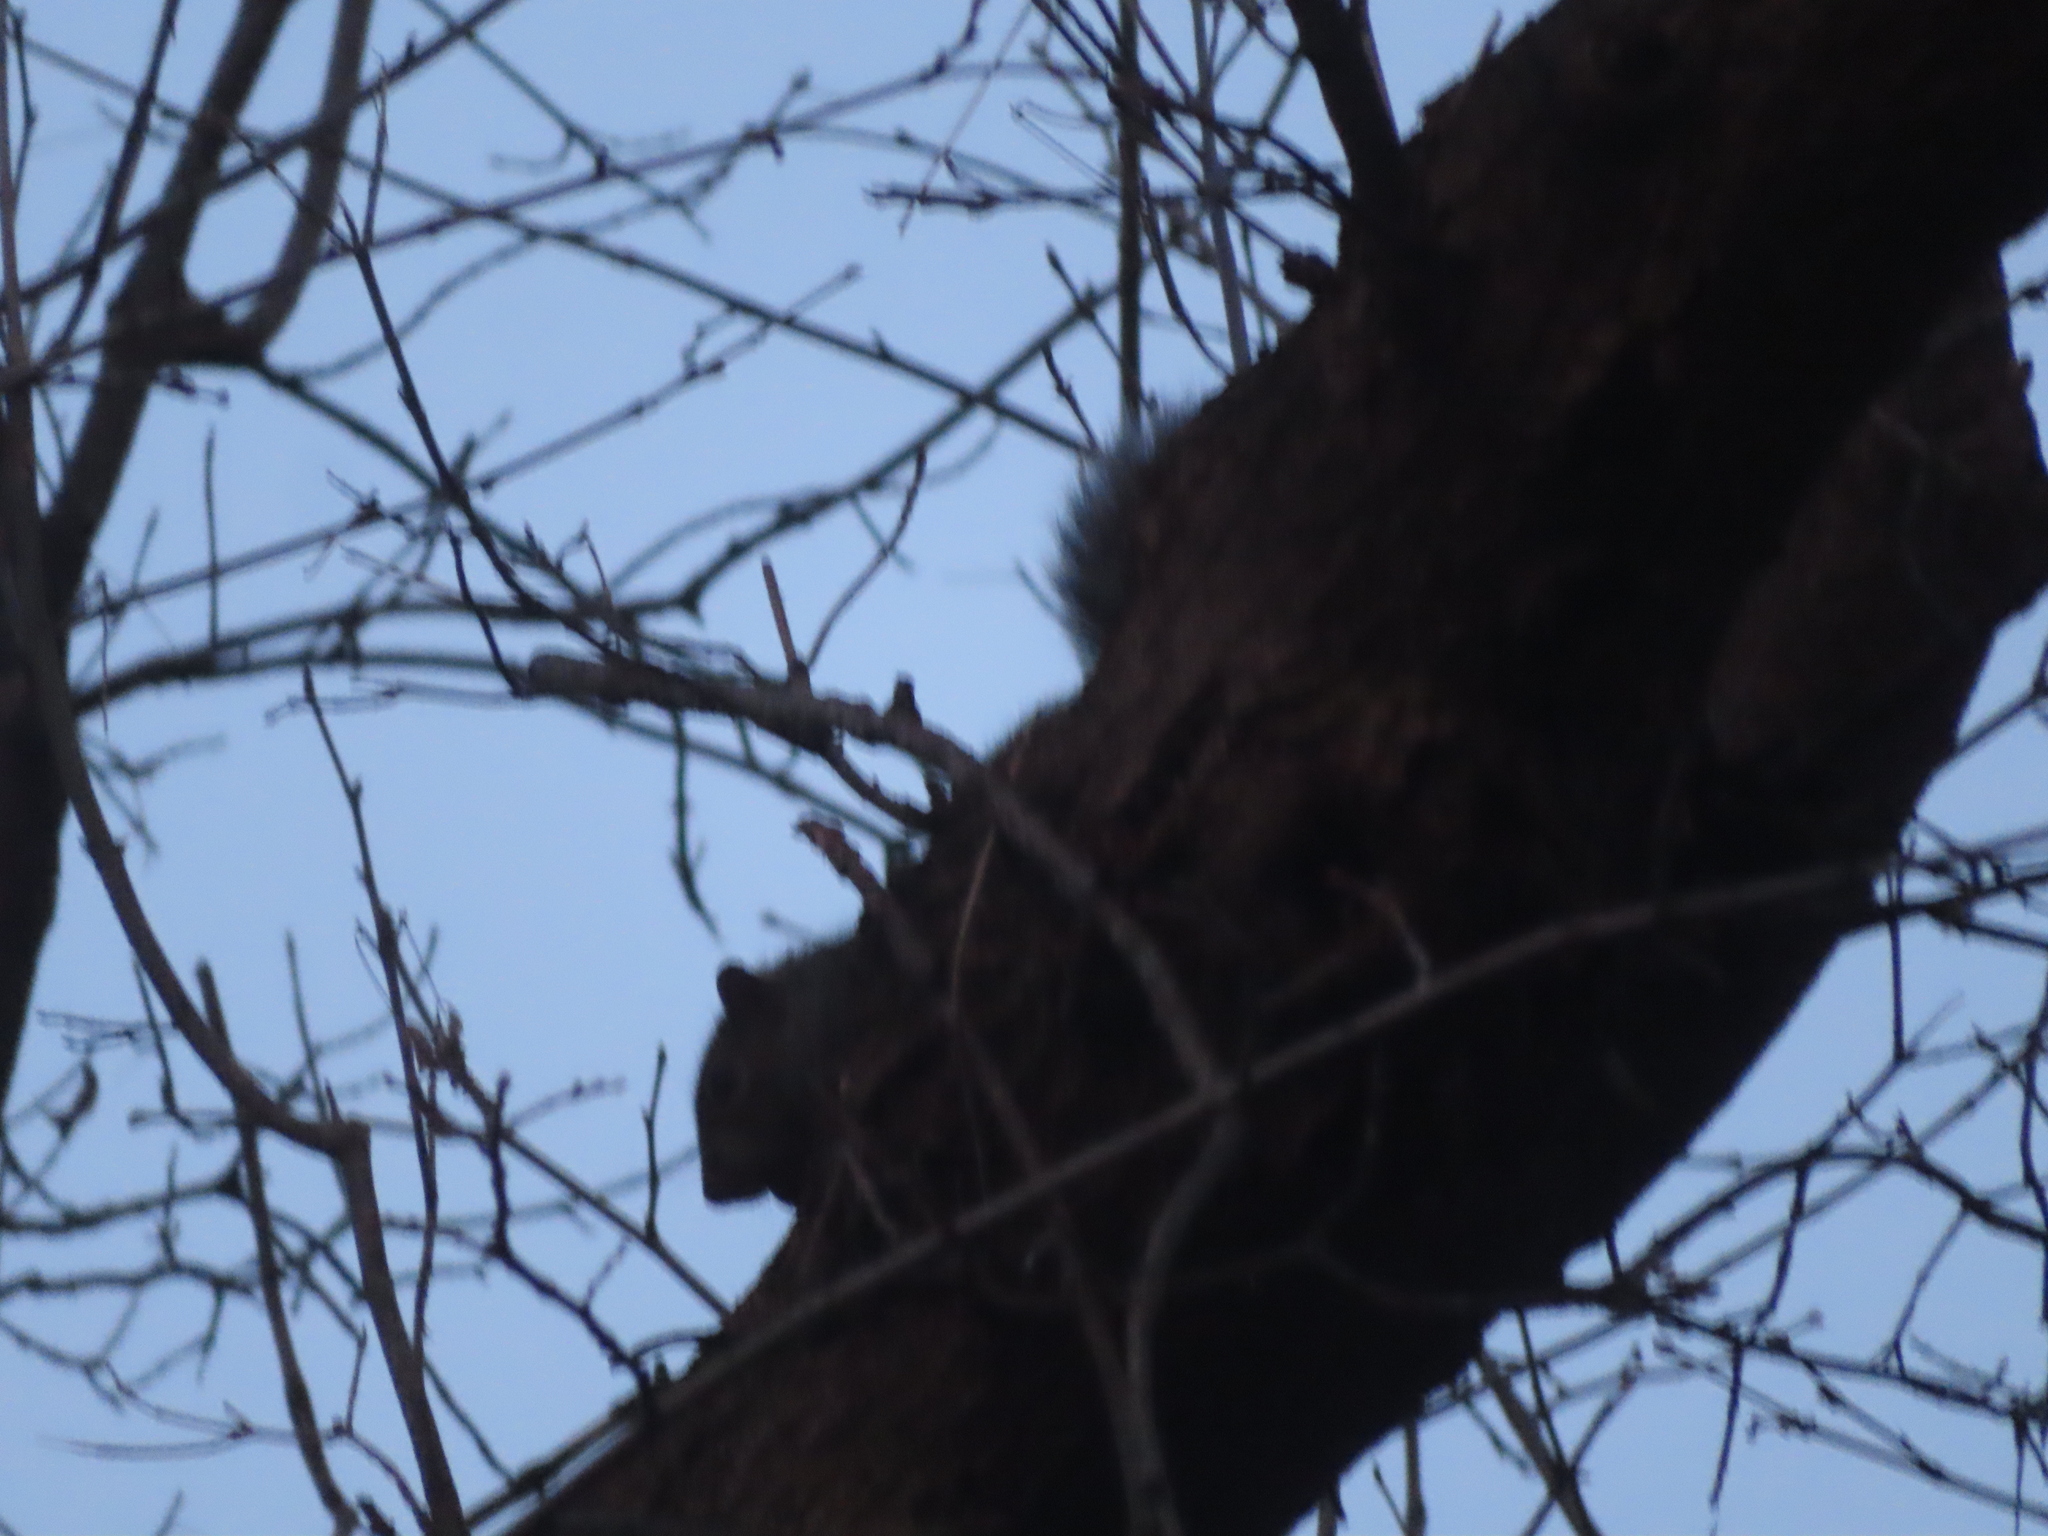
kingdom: Animalia
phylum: Chordata
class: Mammalia
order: Rodentia
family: Sciuridae
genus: Sciurus
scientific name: Sciurus carolinensis
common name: Eastern gray squirrel
